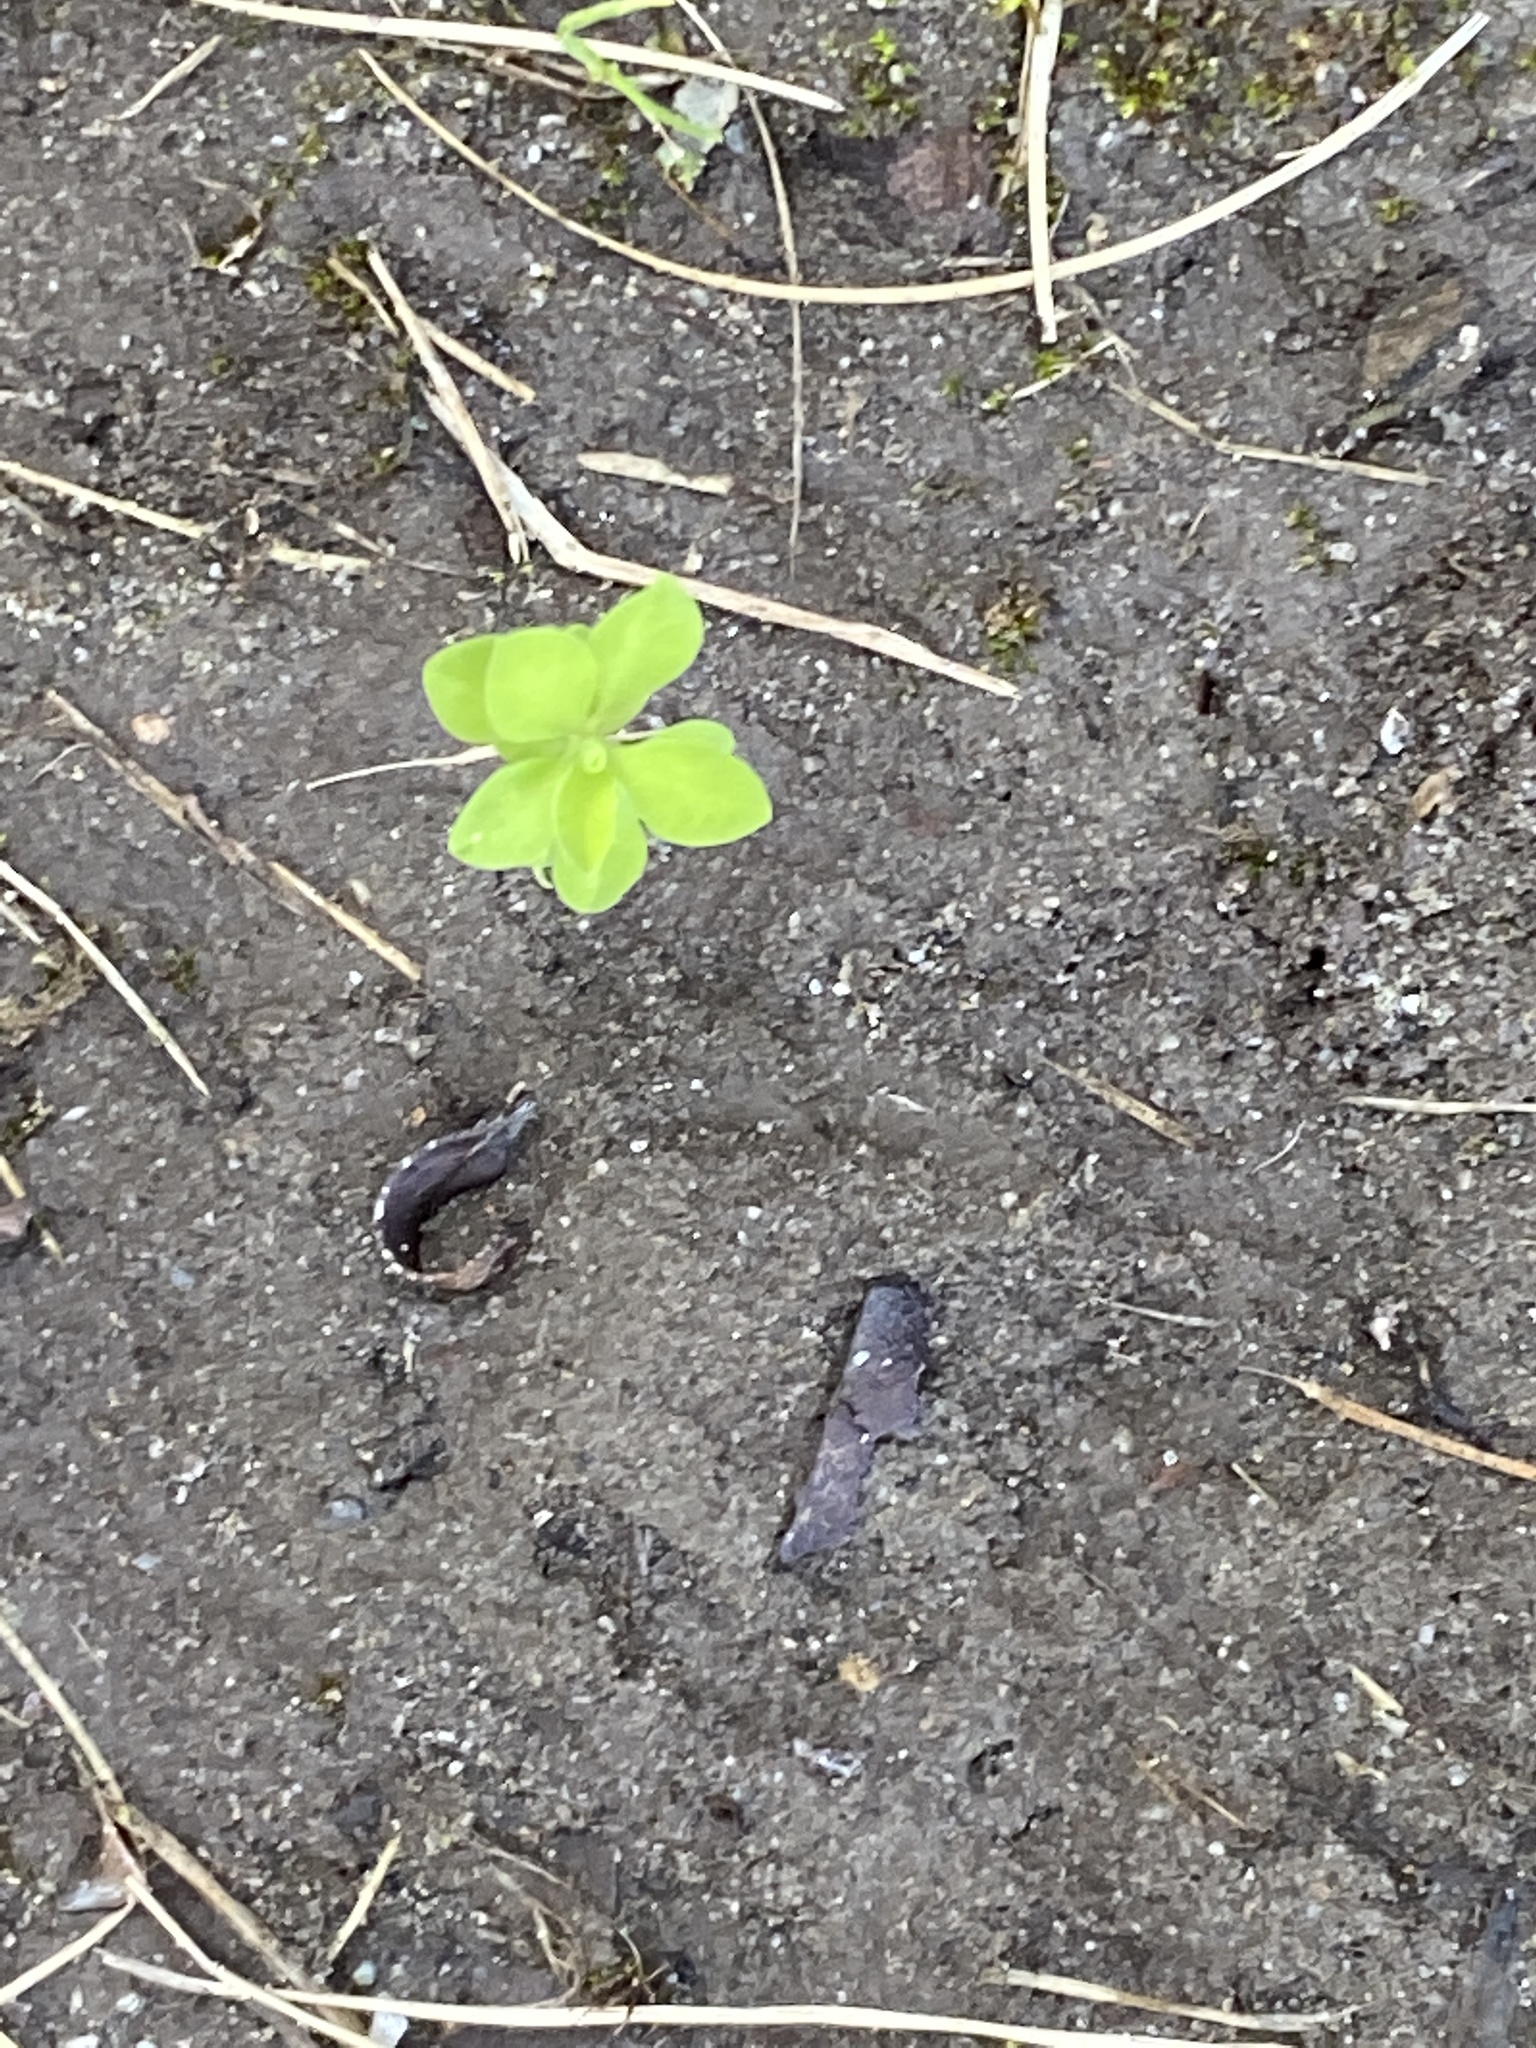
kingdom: Plantae
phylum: Tracheophyta
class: Magnoliopsida
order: Malpighiales
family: Euphorbiaceae
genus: Euphorbia
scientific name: Euphorbia peplus
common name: Petty spurge
